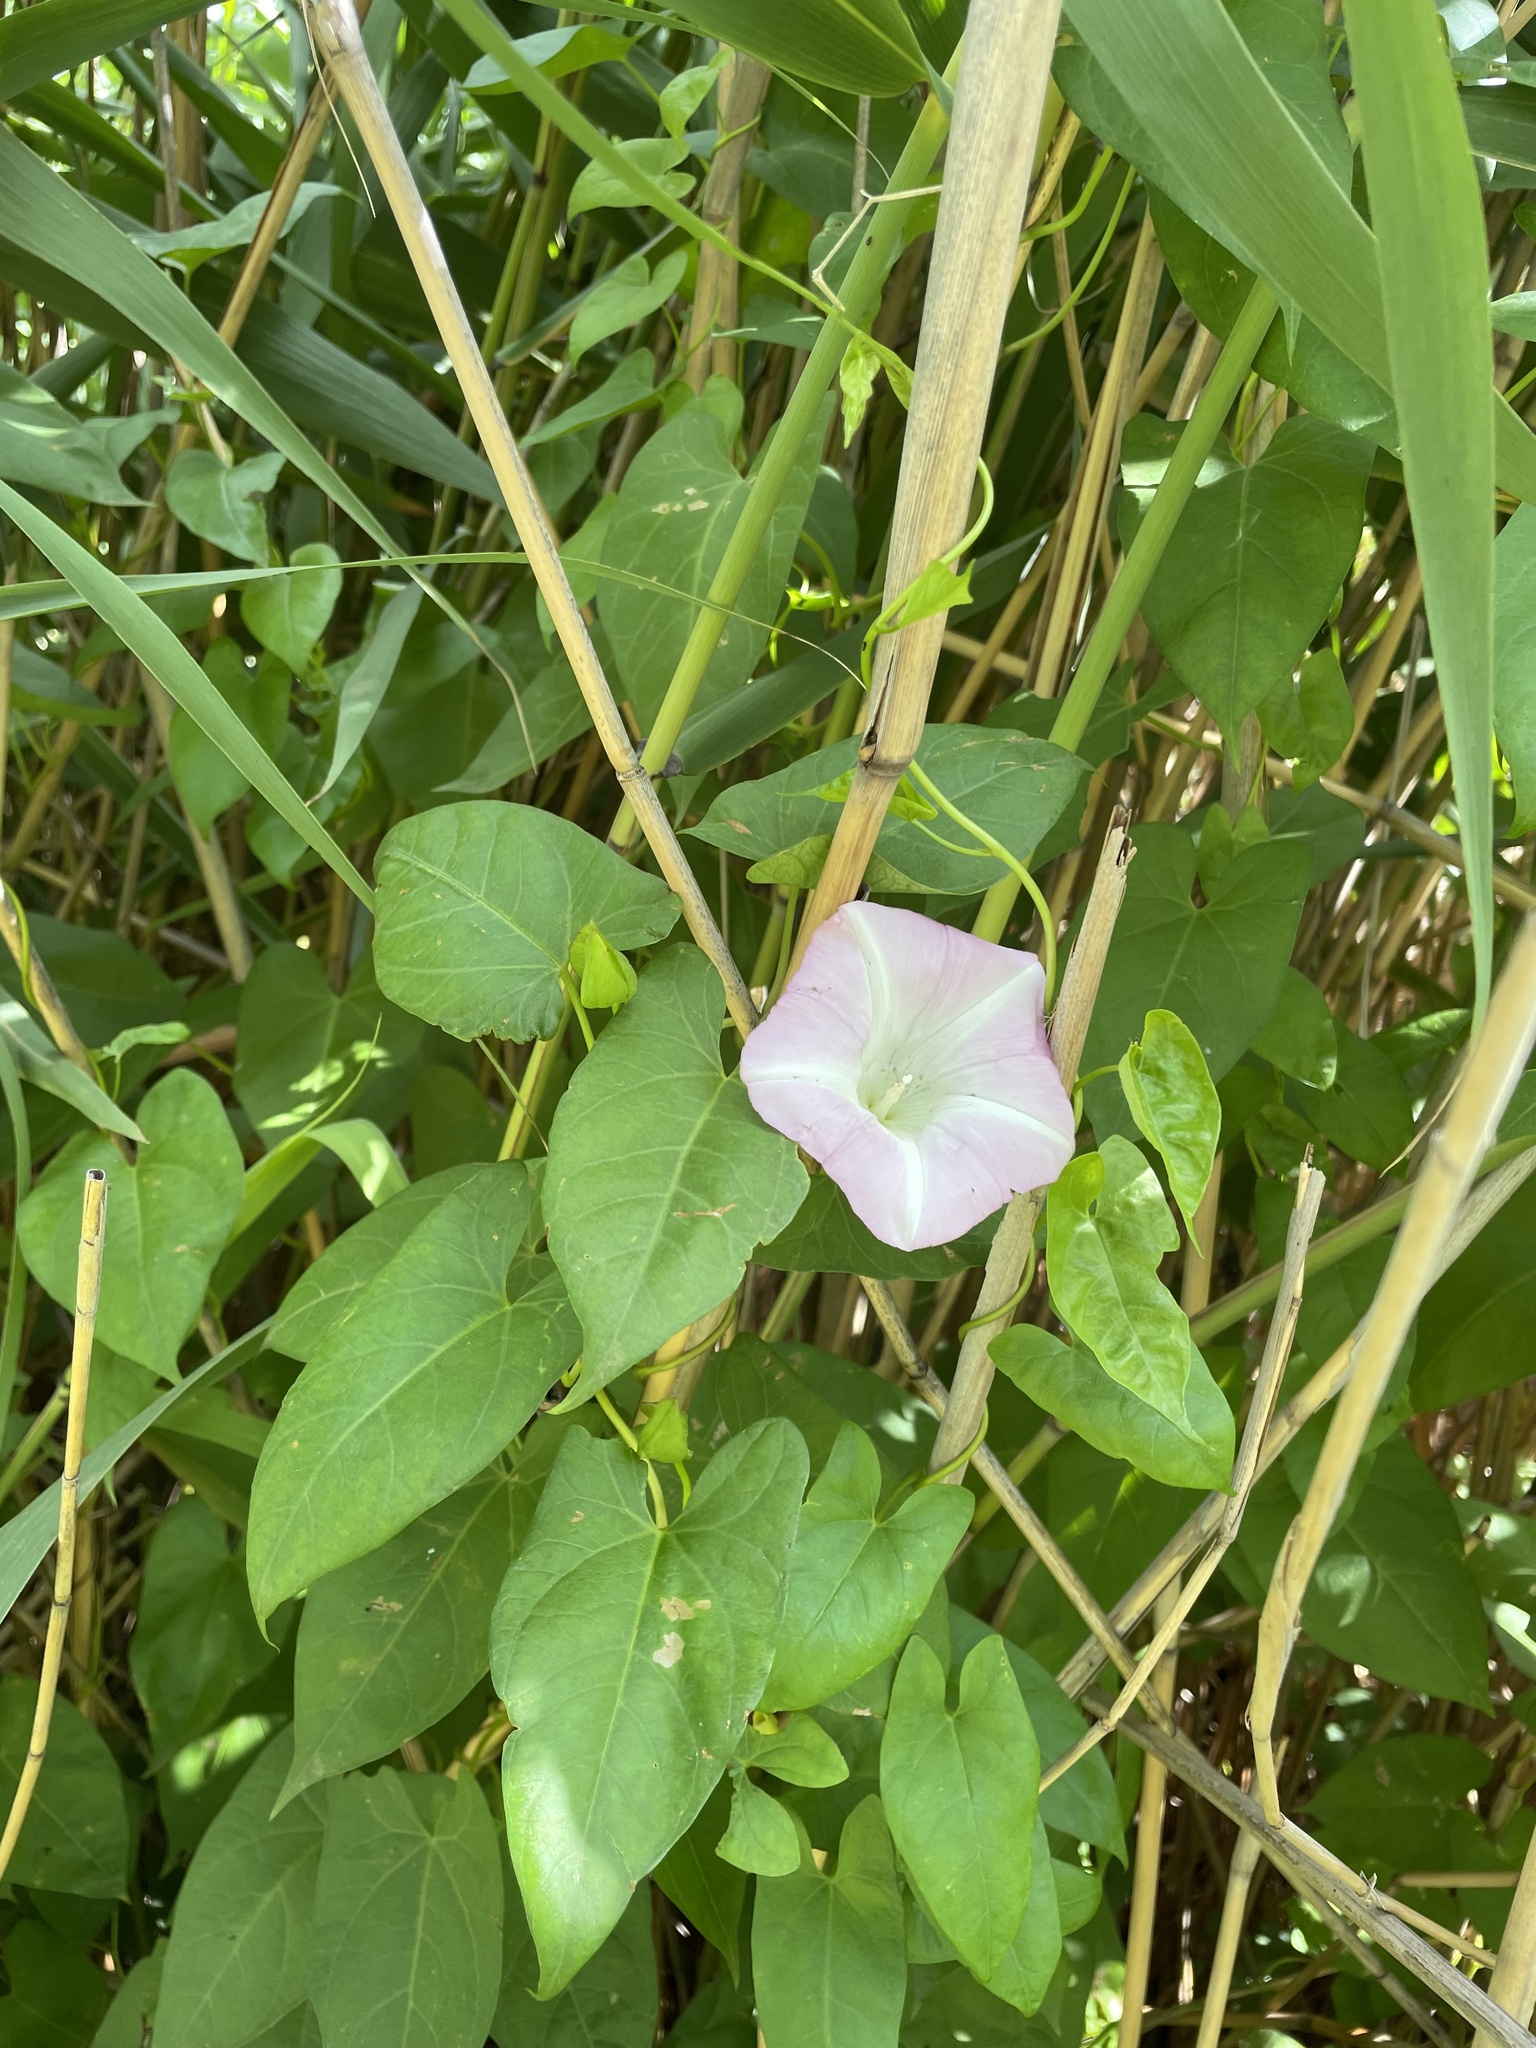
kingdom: Plantae
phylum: Tracheophyta
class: Magnoliopsida
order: Solanales
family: Convolvulaceae
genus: Calystegia
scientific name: Calystegia sepium
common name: Hedge bindweed
